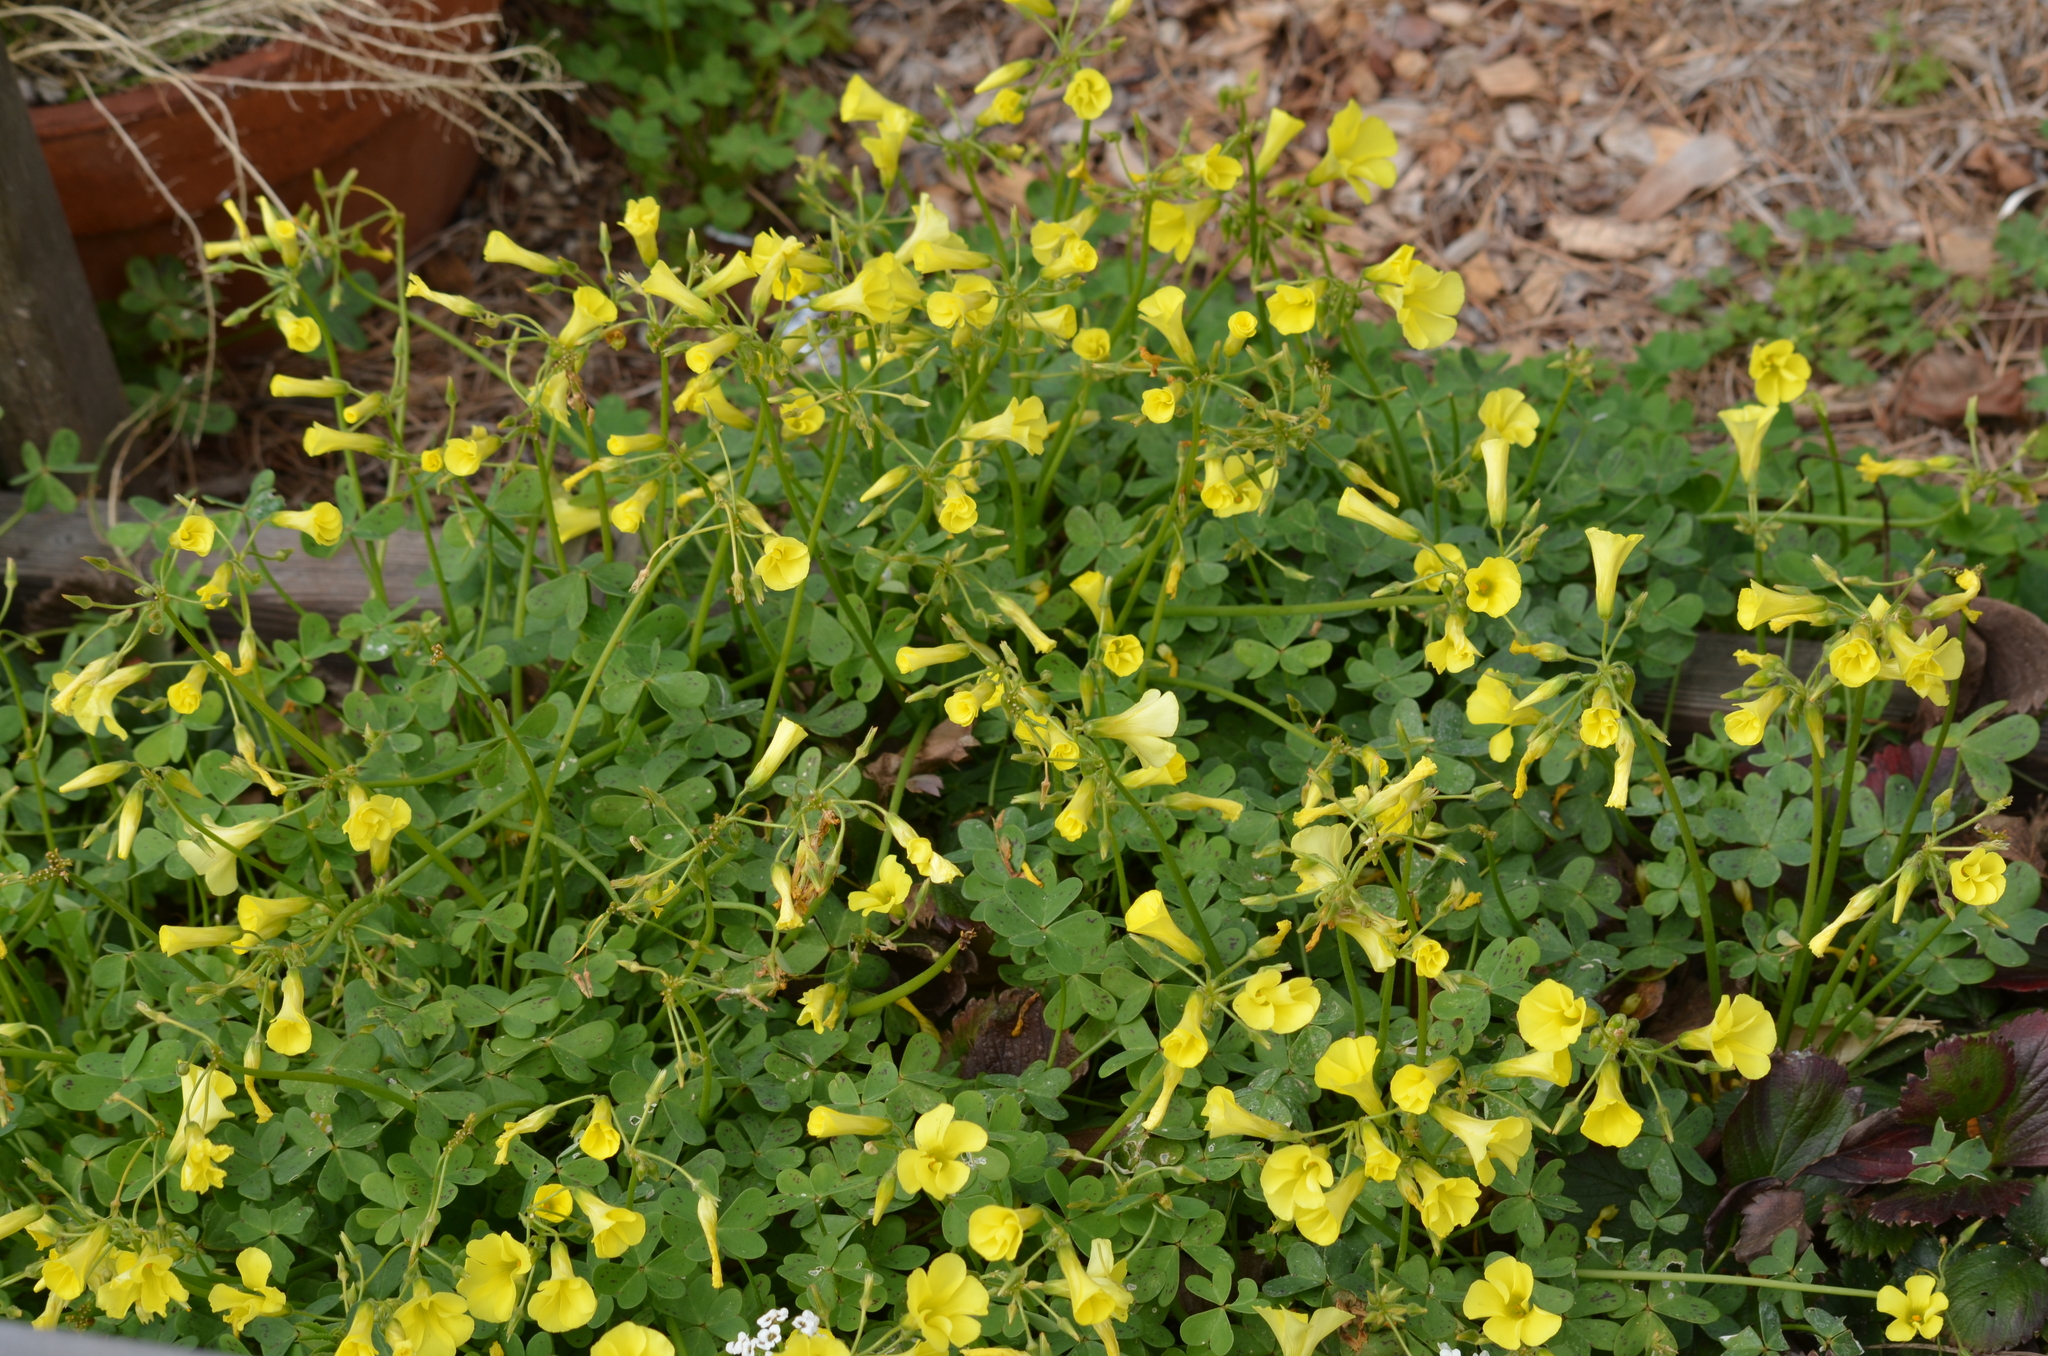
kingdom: Plantae
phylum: Tracheophyta
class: Magnoliopsida
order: Oxalidales
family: Oxalidaceae
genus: Oxalis
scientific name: Oxalis pes-caprae
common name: Bermuda-buttercup
